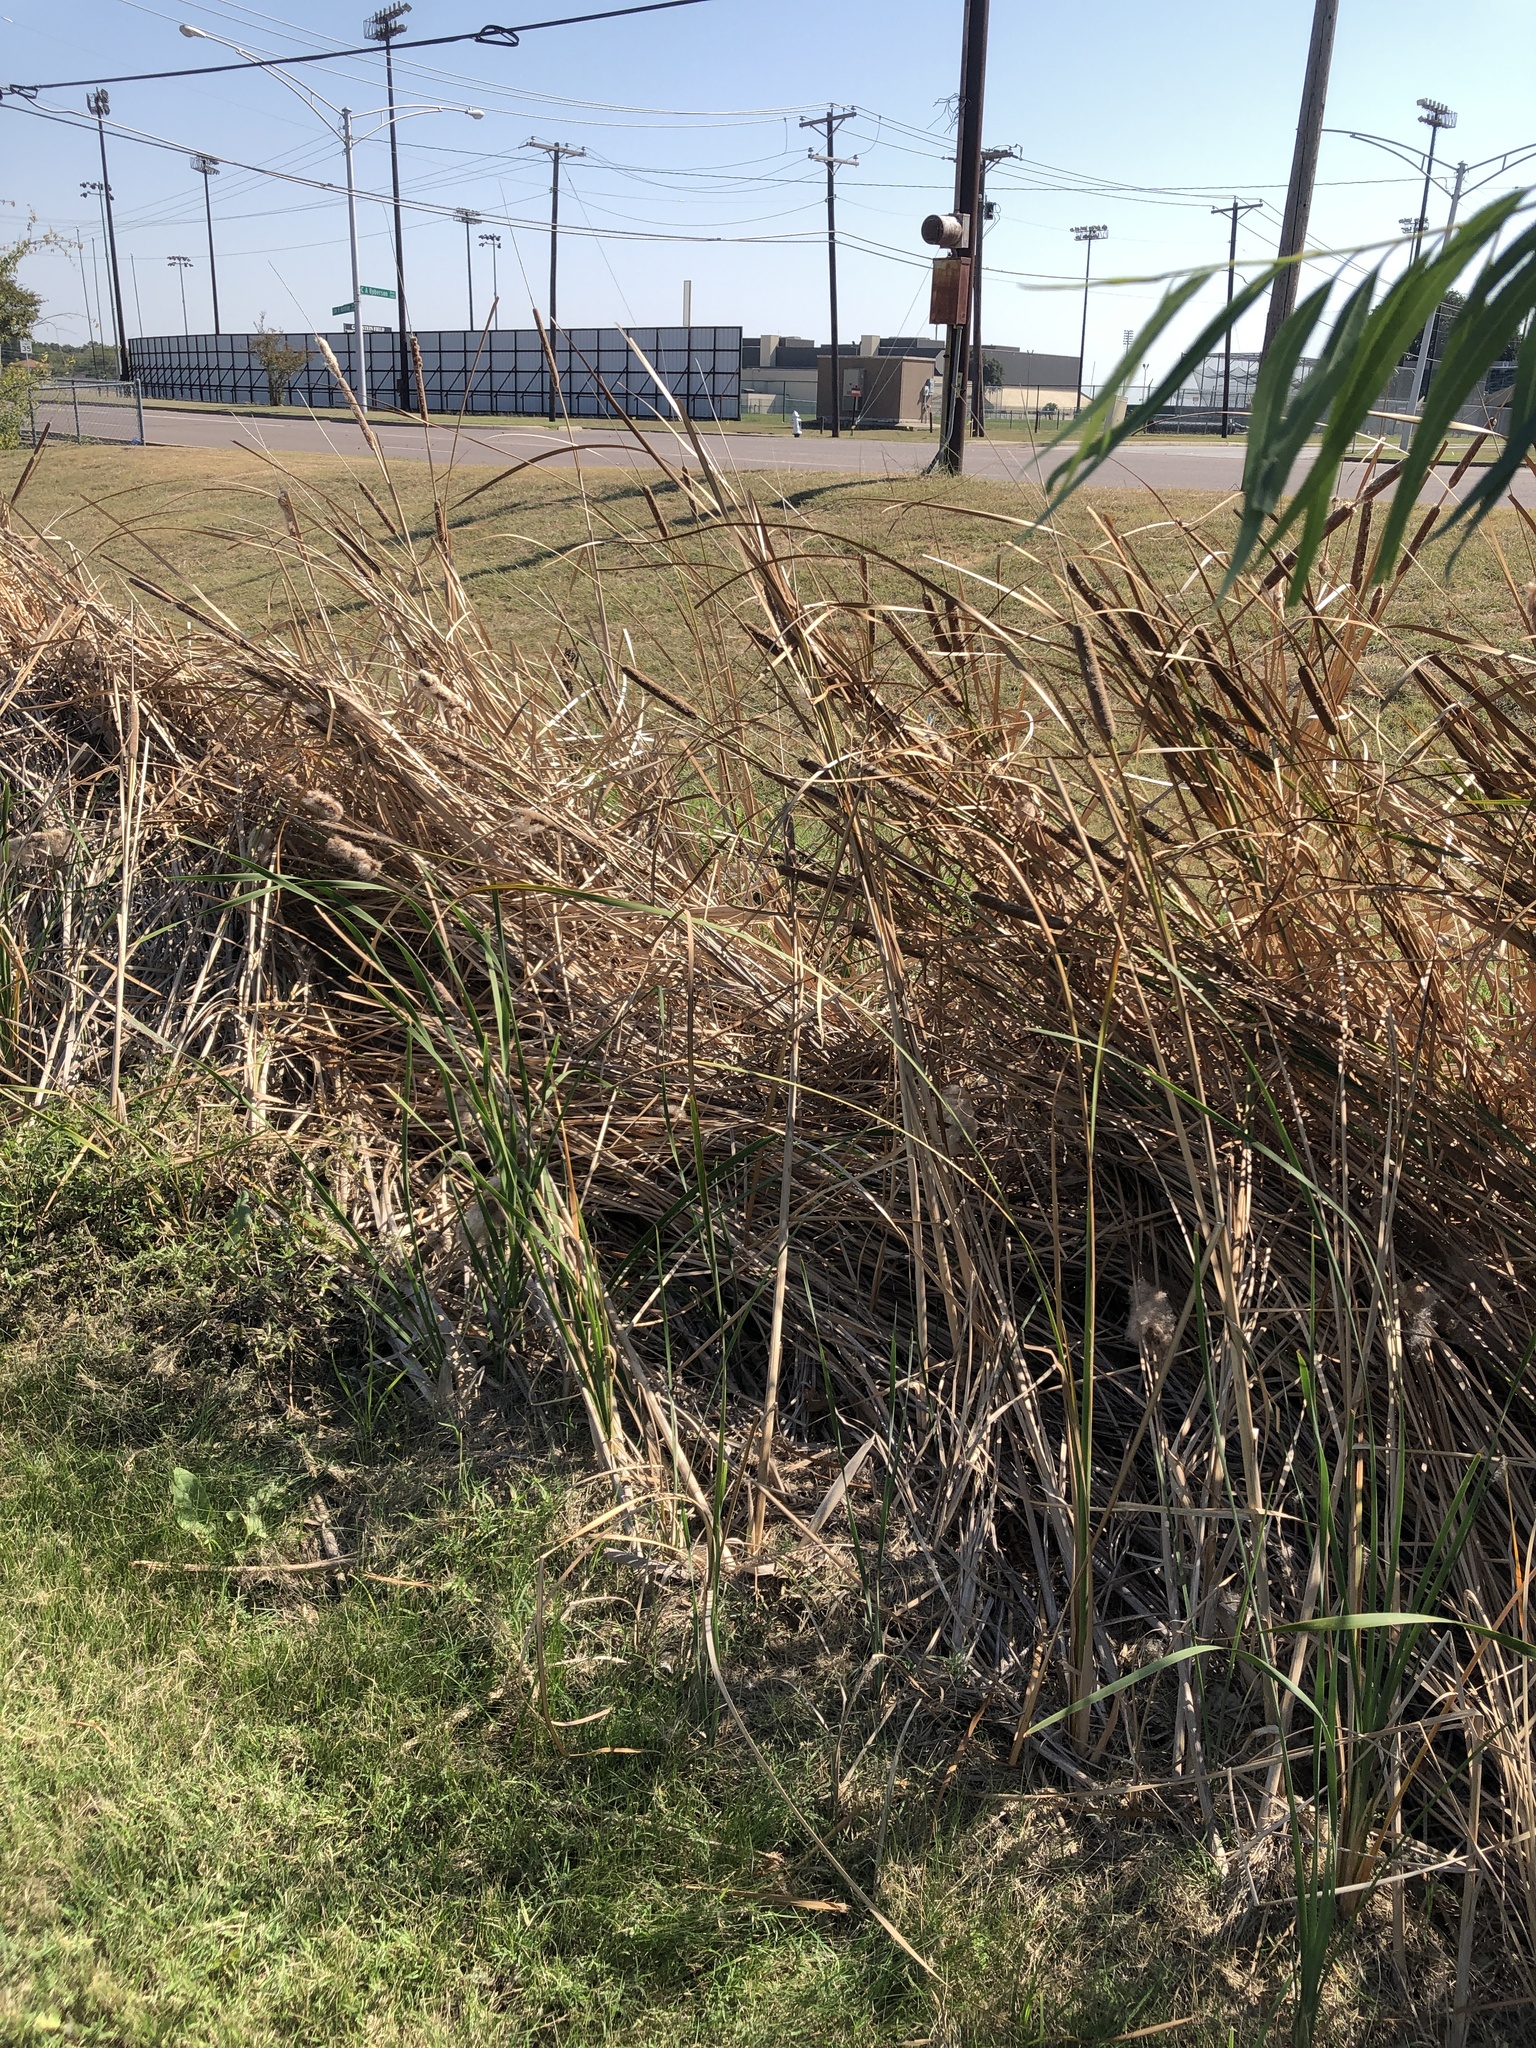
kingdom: Plantae
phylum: Tracheophyta
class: Liliopsida
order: Poales
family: Typhaceae
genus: Typha
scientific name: Typha domingensis
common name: Southern cattail
